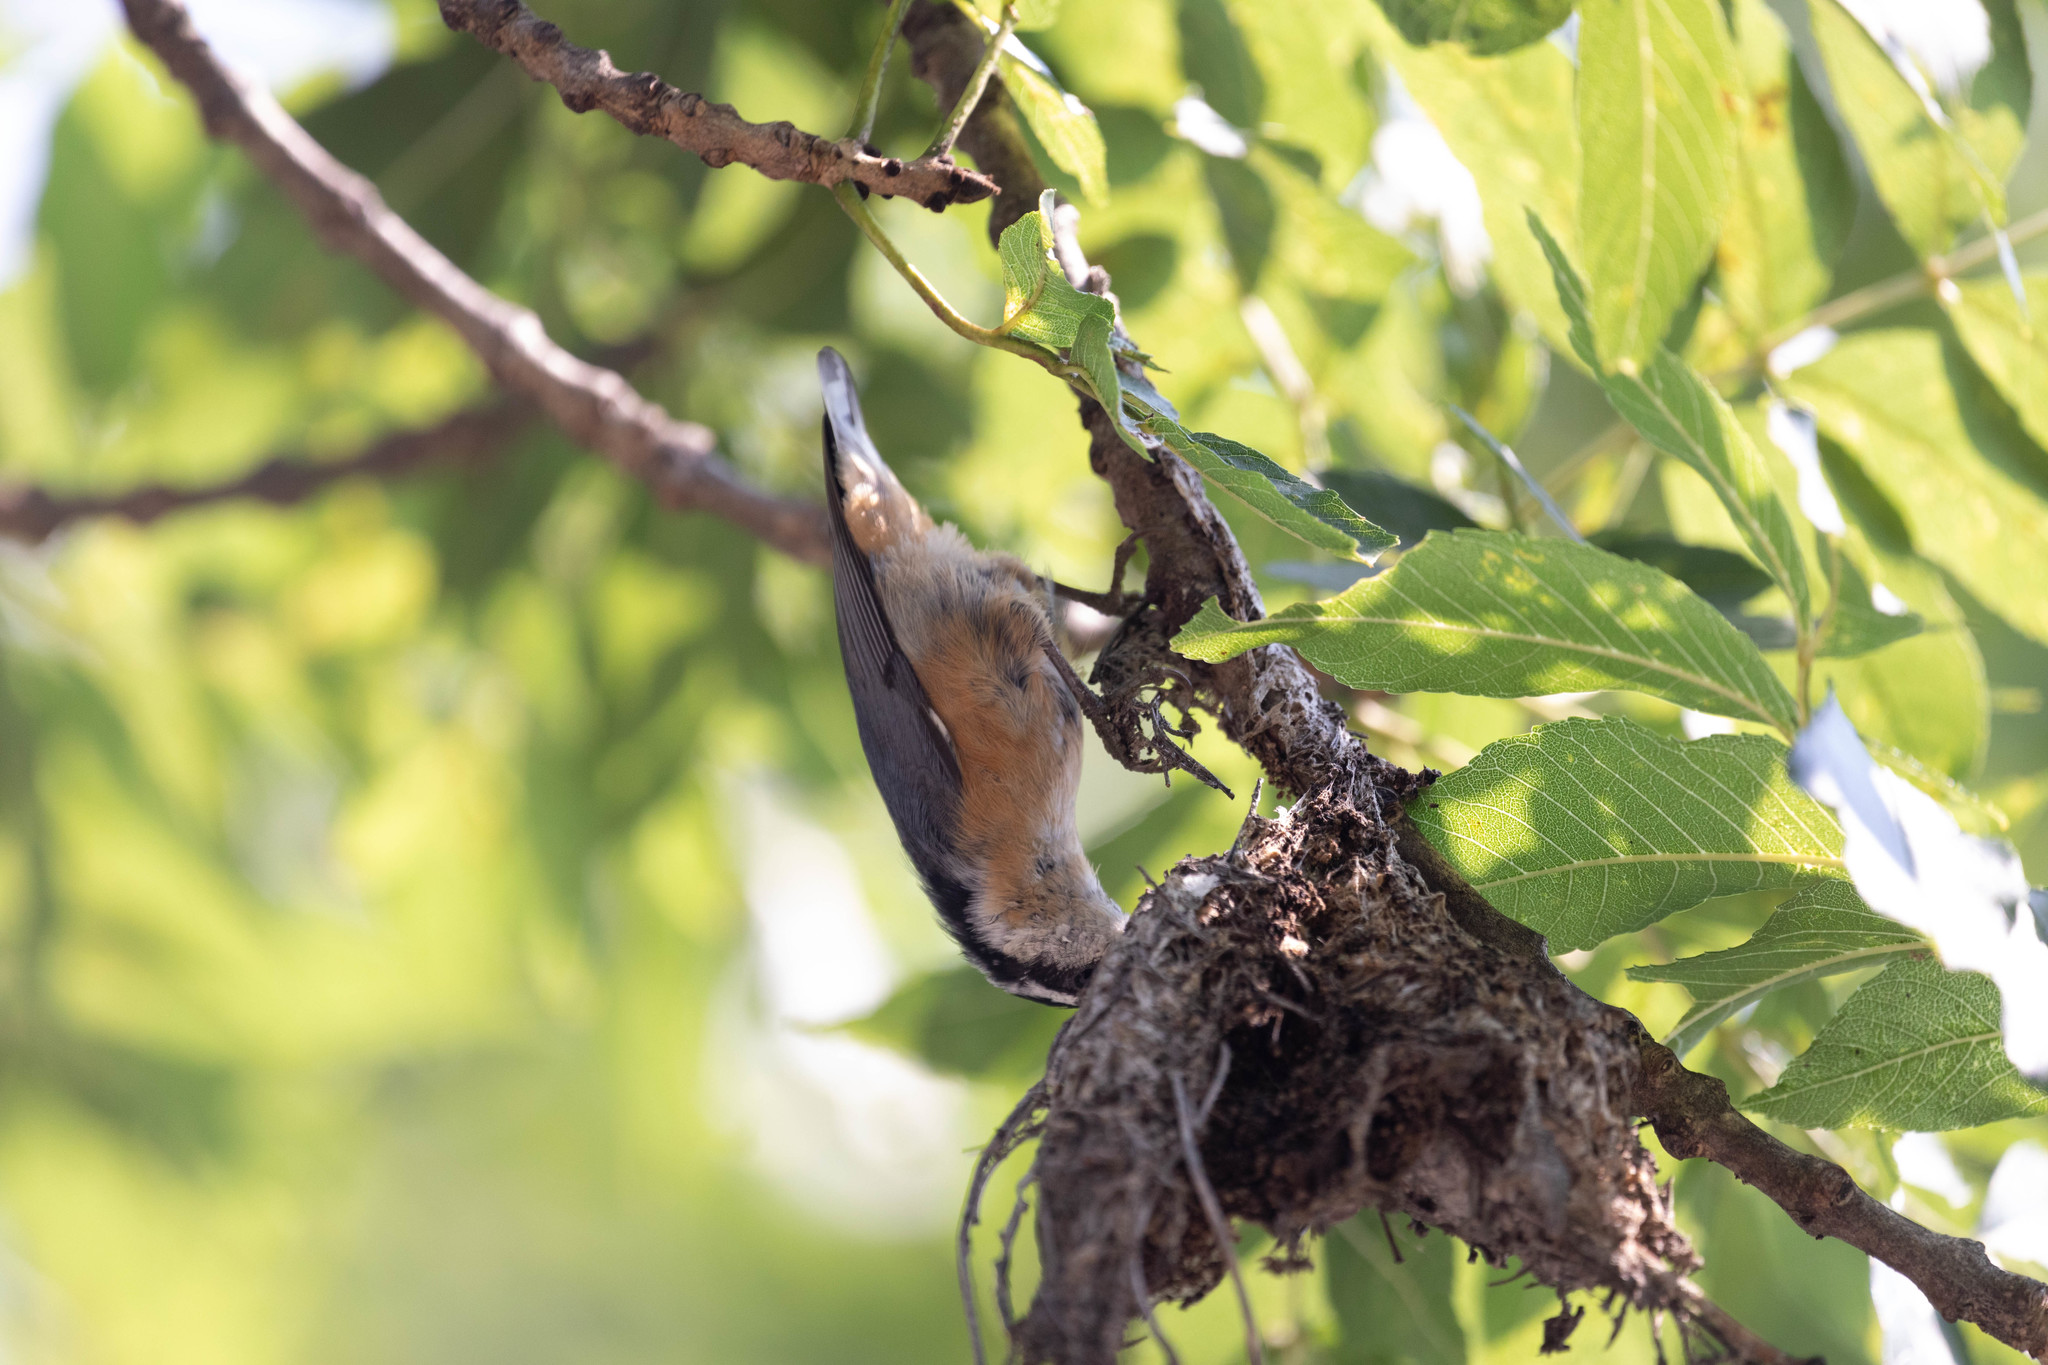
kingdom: Animalia
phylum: Chordata
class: Aves
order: Passeriformes
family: Sittidae
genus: Sitta
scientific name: Sitta canadensis
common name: Red-breasted nuthatch
